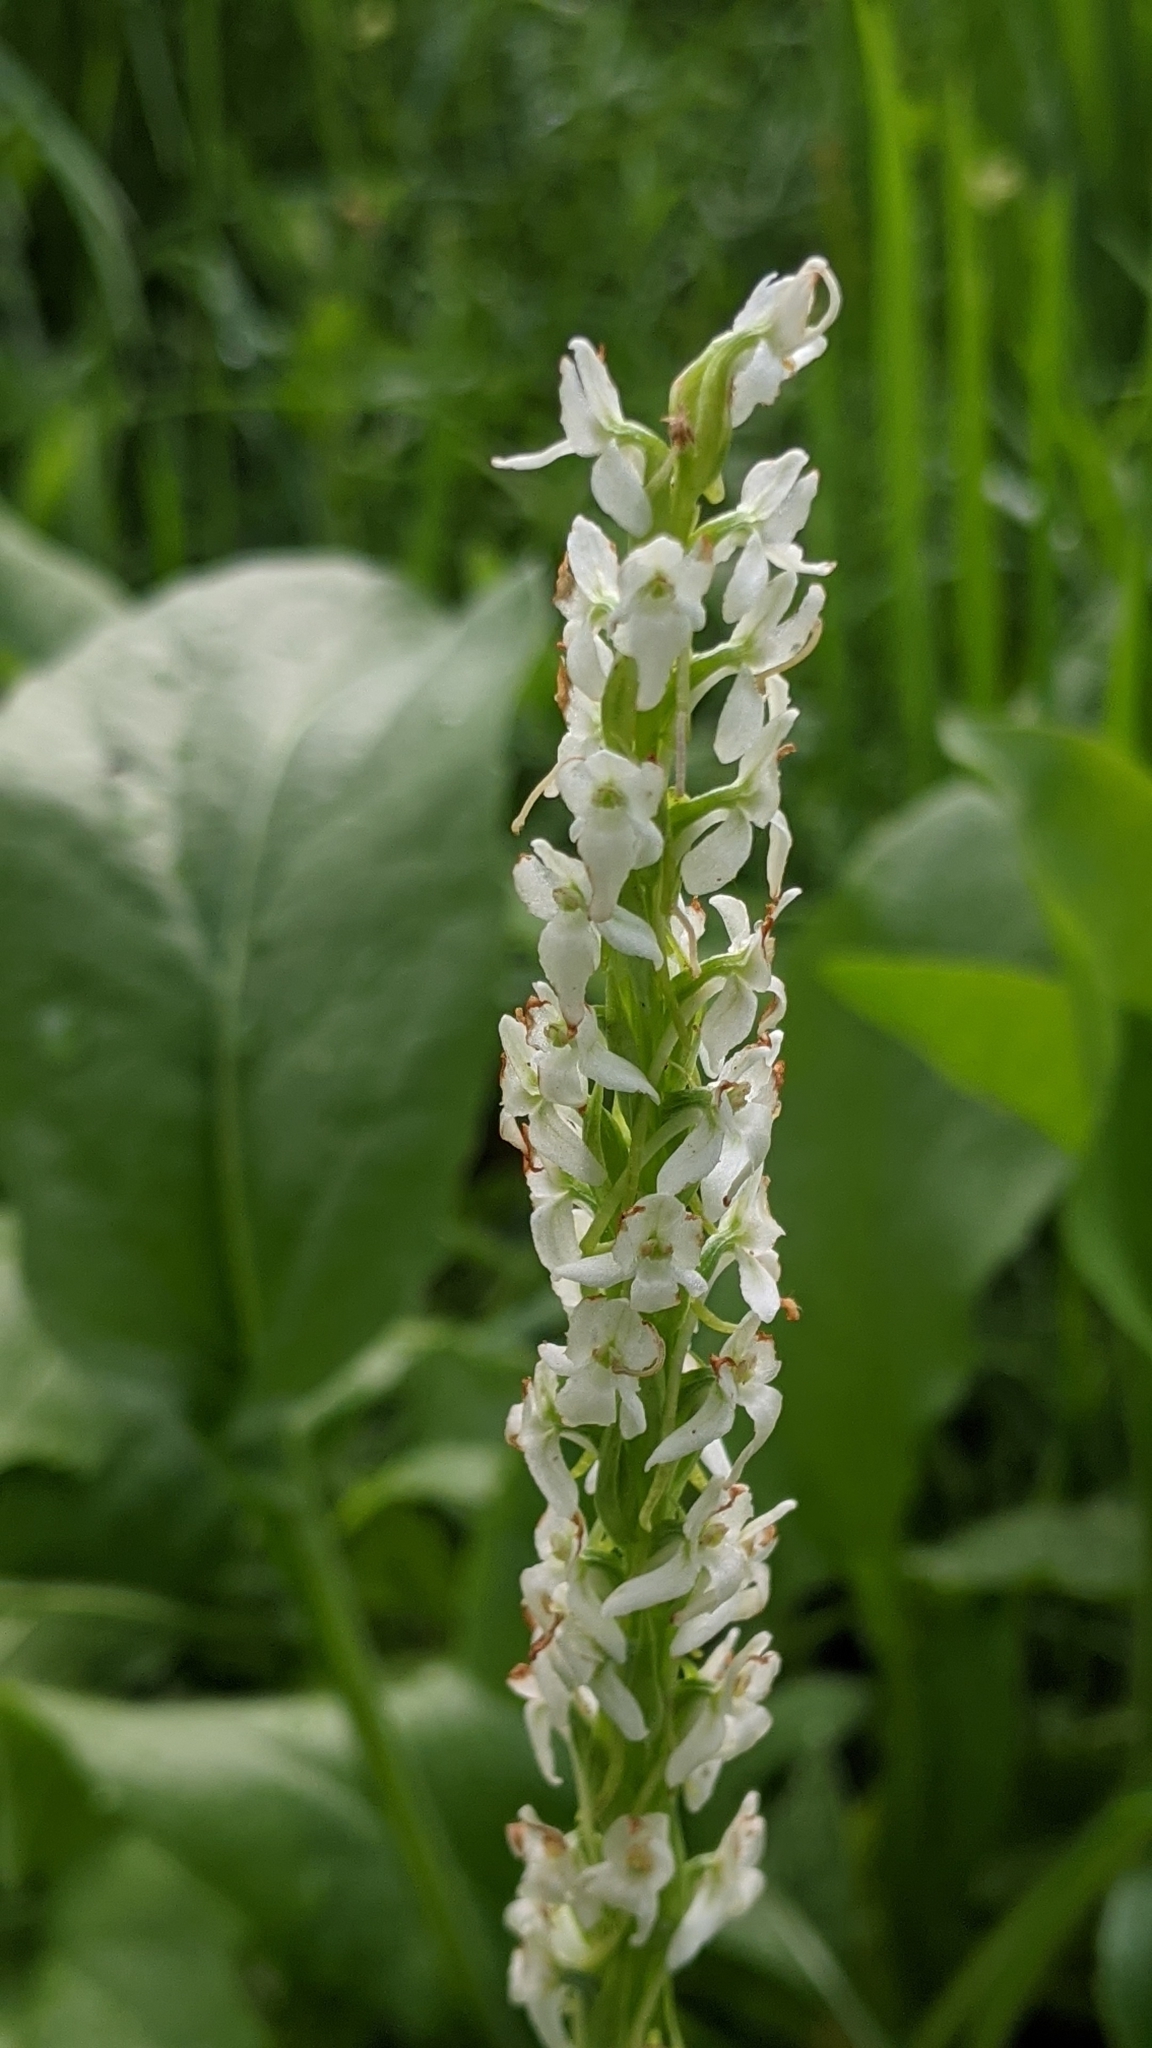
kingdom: Plantae
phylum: Tracheophyta
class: Liliopsida
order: Asparagales
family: Orchidaceae
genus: Platanthera
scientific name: Platanthera dilatata
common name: Bog candles
